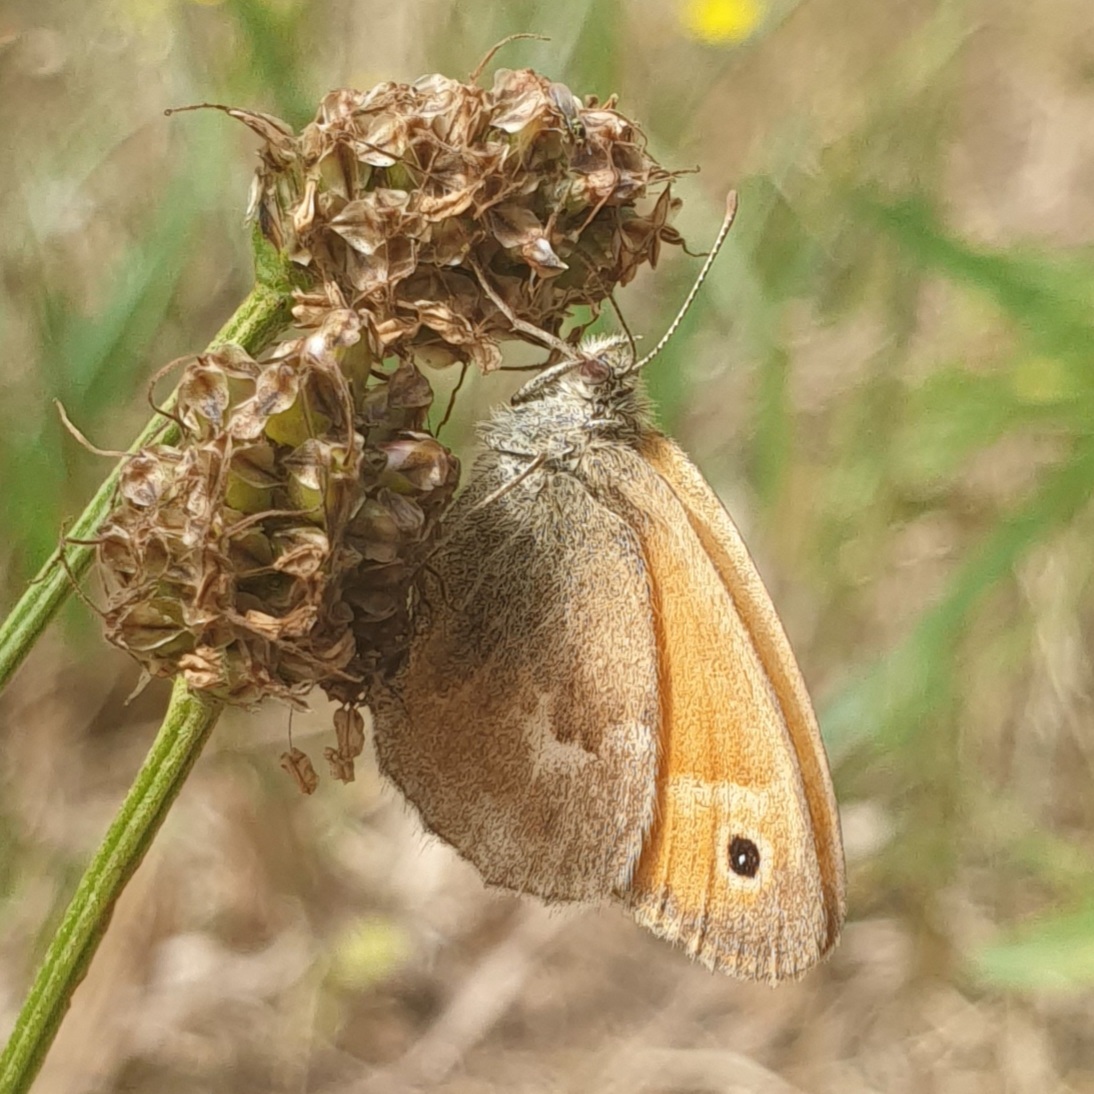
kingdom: Animalia
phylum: Arthropoda
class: Insecta
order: Lepidoptera
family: Nymphalidae
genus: Coenonympha
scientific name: Coenonympha pamphilus
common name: Small heath
